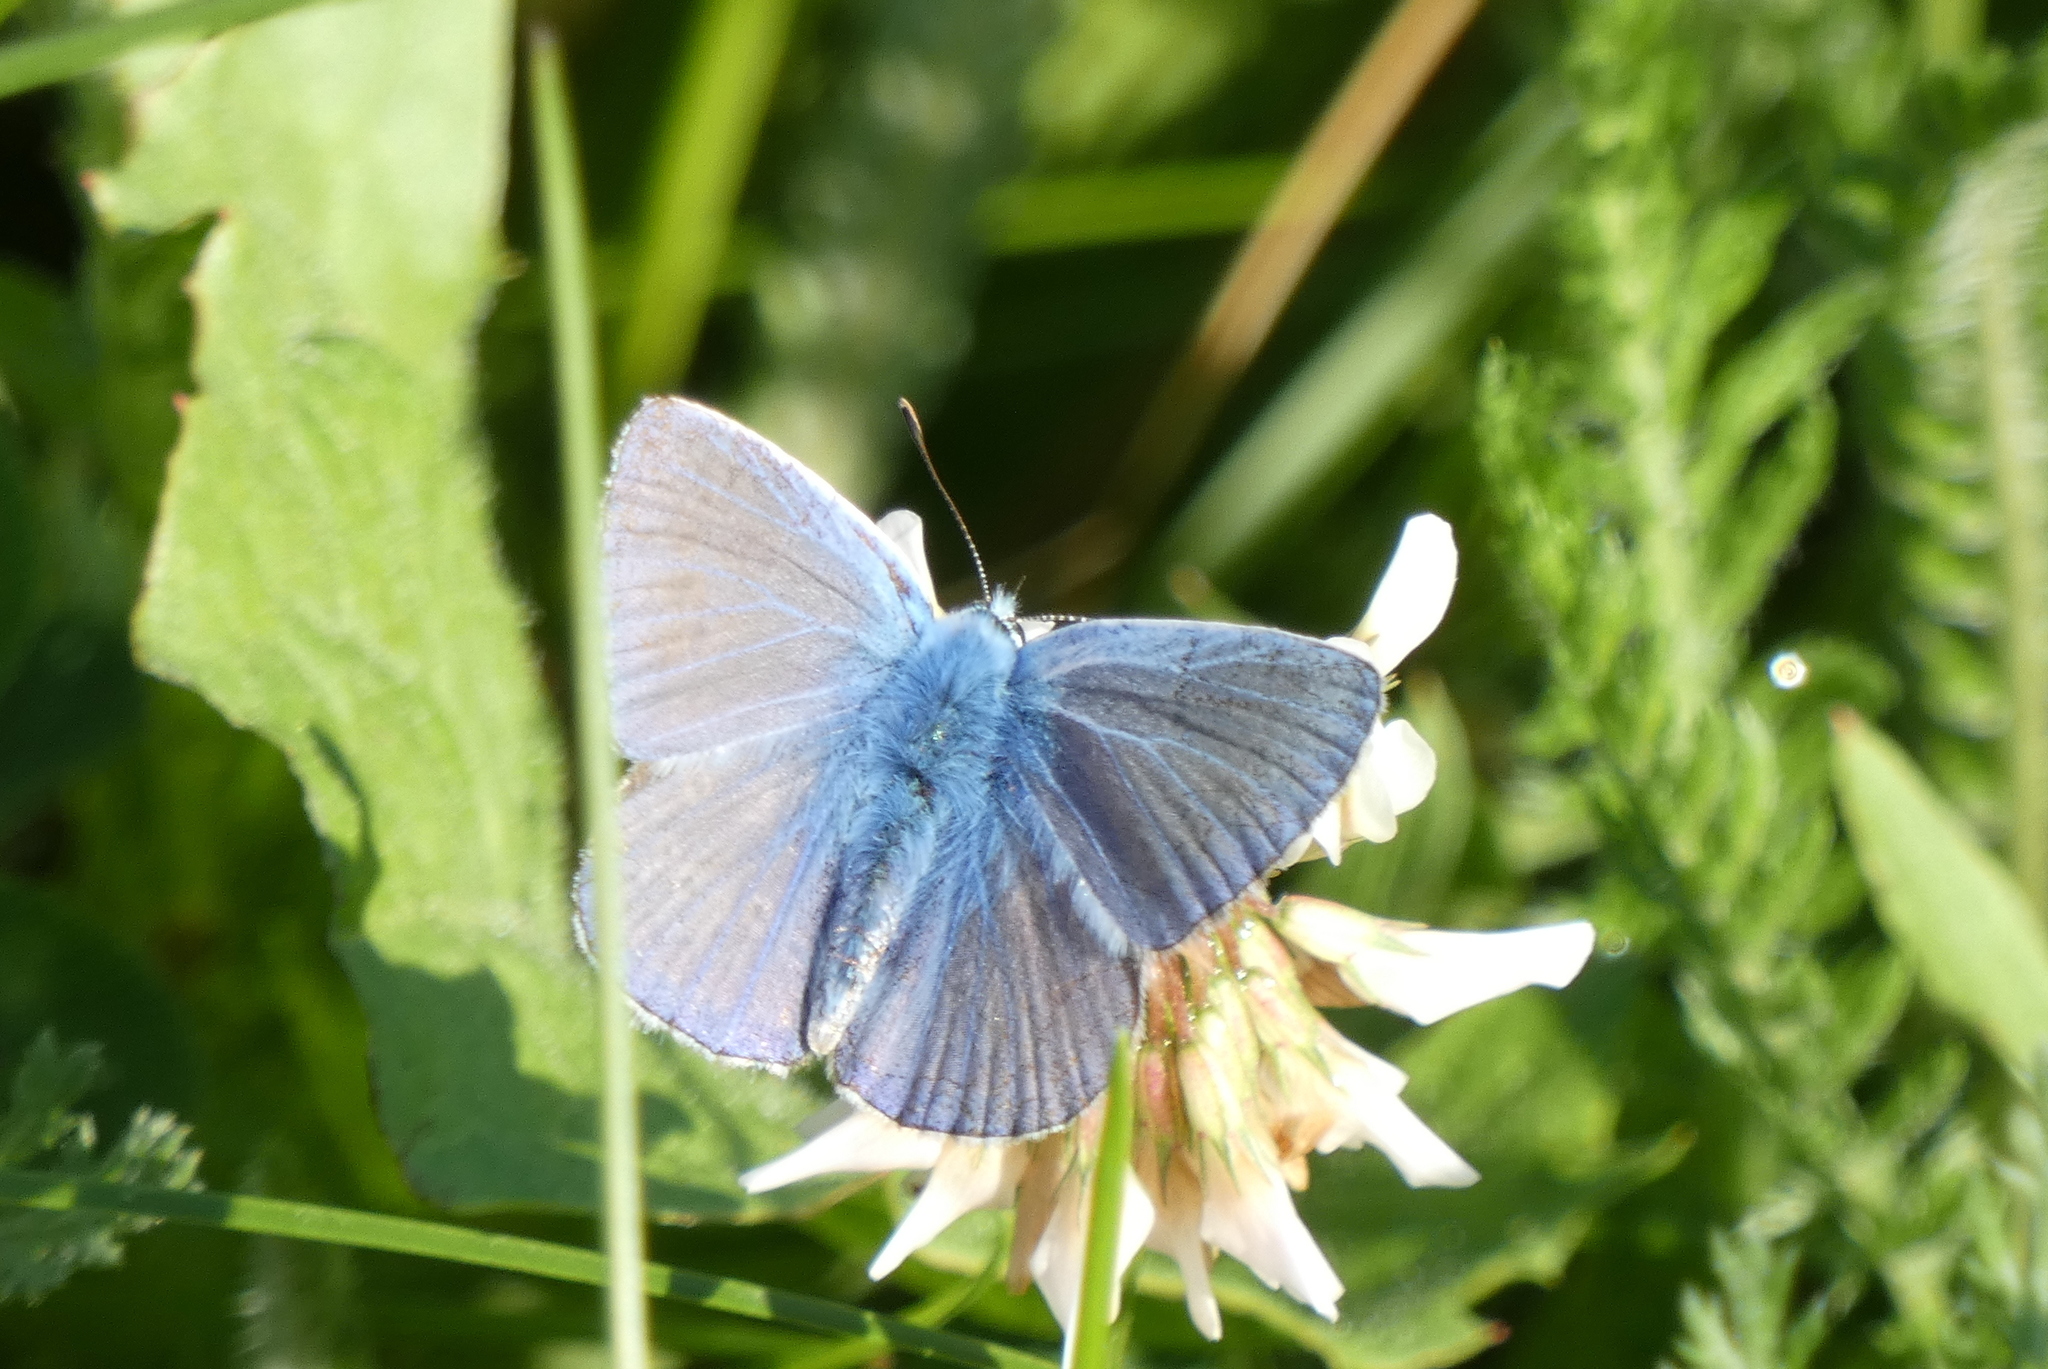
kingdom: Animalia
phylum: Arthropoda
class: Insecta
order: Lepidoptera
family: Lycaenidae
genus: Polyommatus
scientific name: Polyommatus icarus
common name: Common blue
